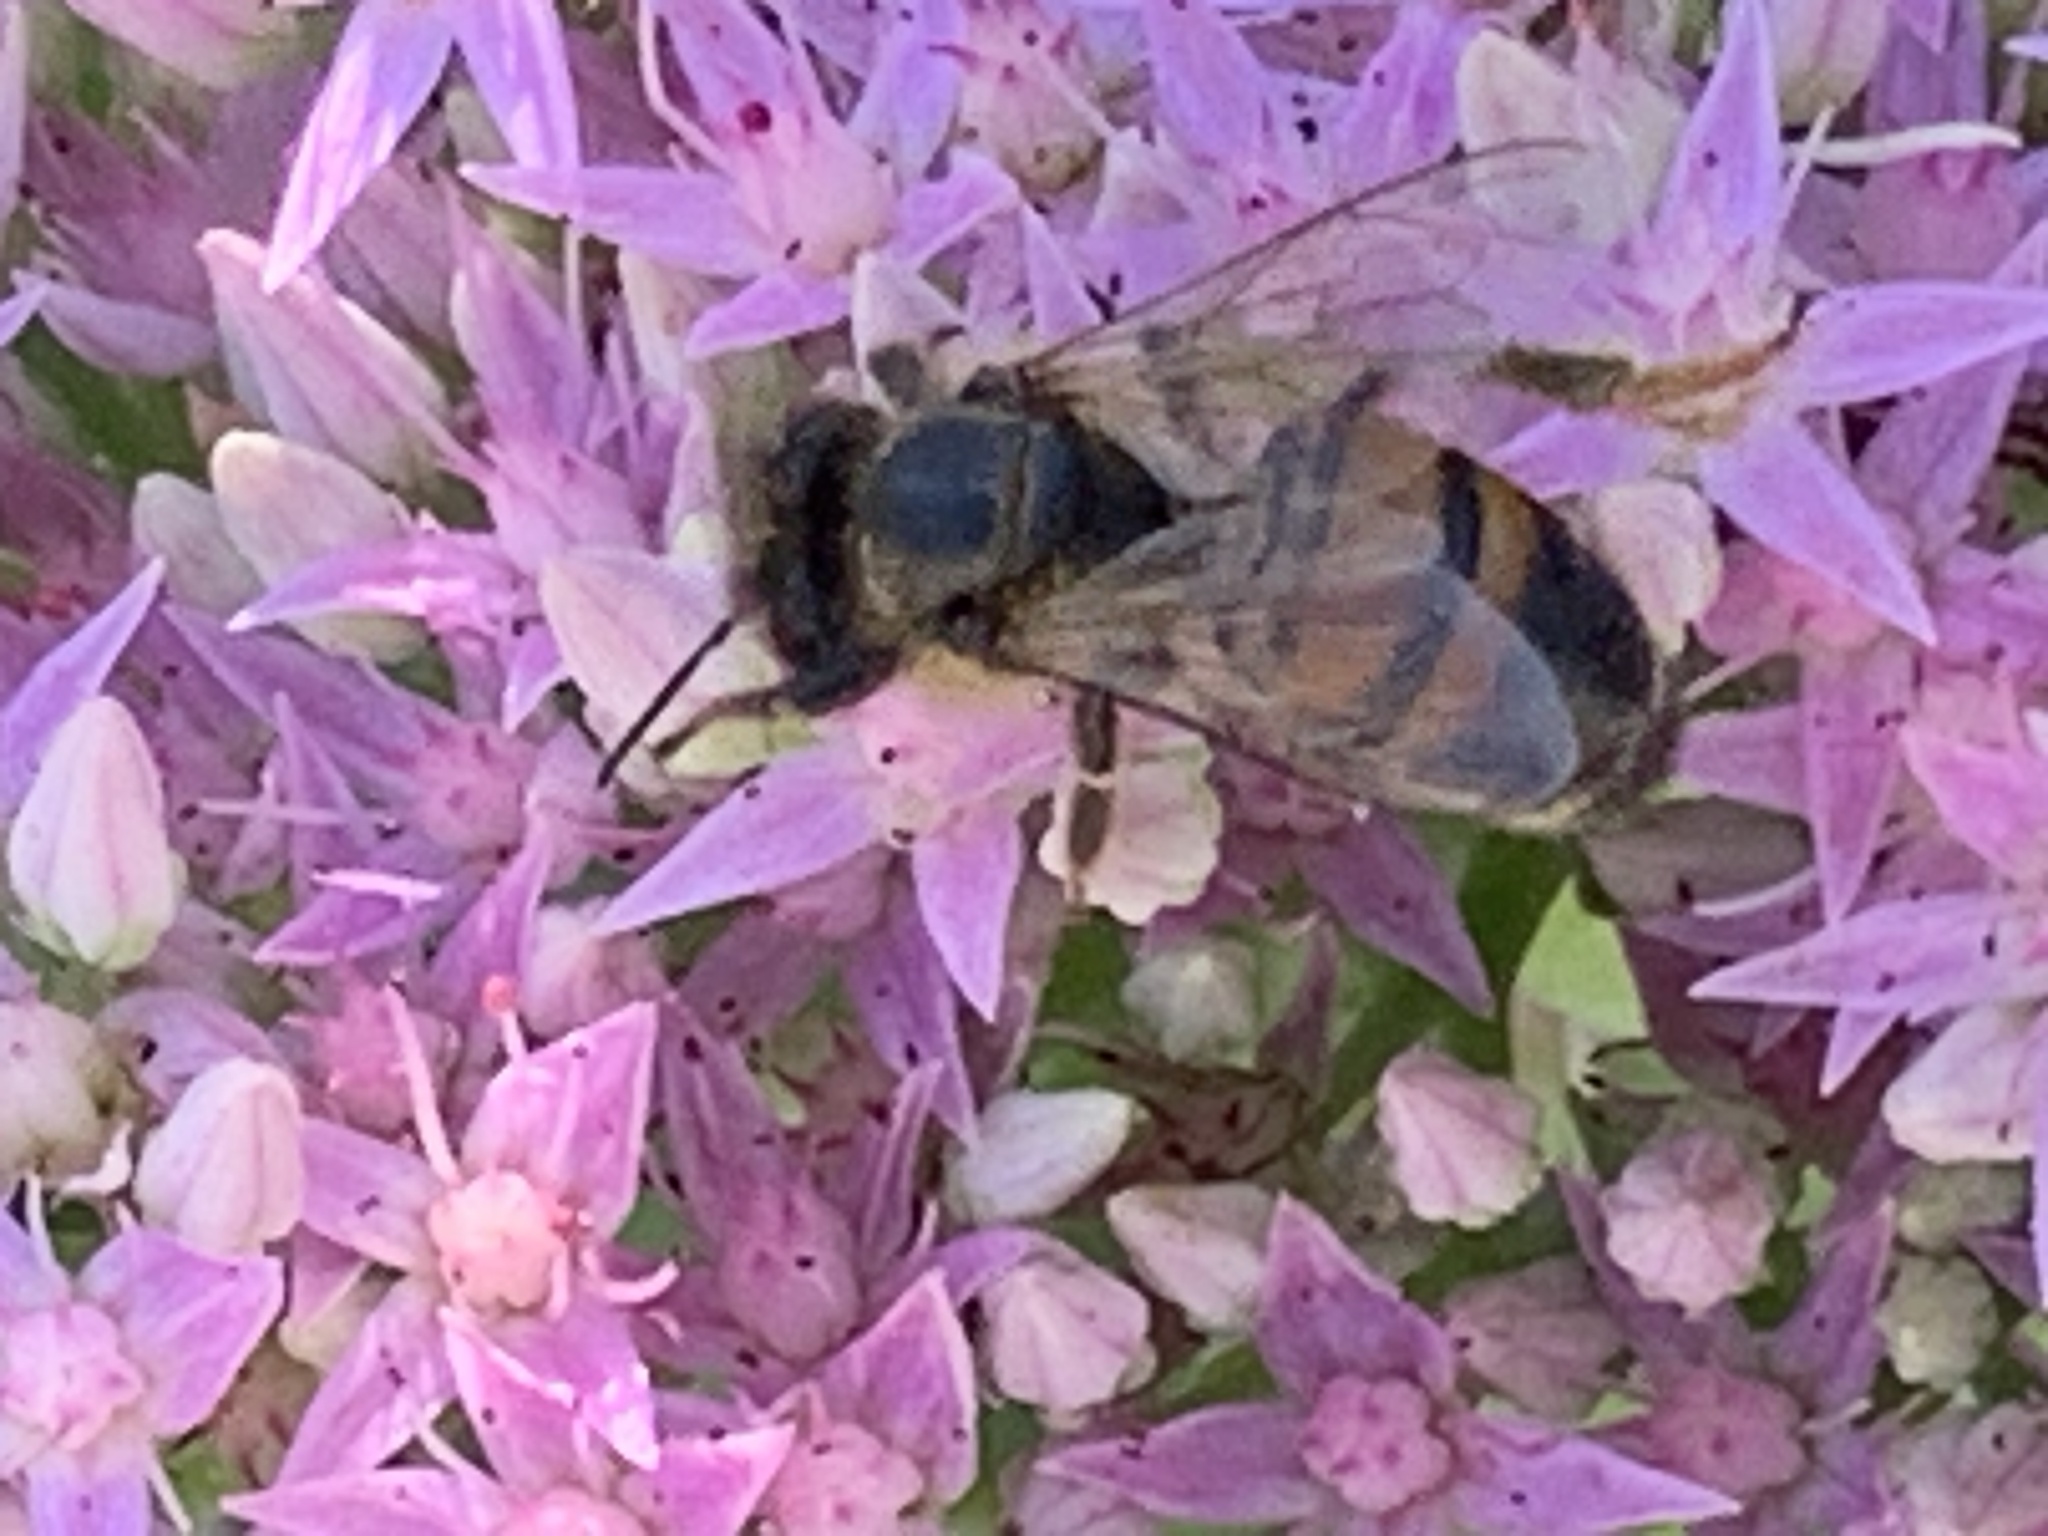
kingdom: Animalia
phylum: Arthropoda
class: Insecta
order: Hymenoptera
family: Apidae
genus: Apis
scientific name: Apis mellifera
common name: Honey bee
